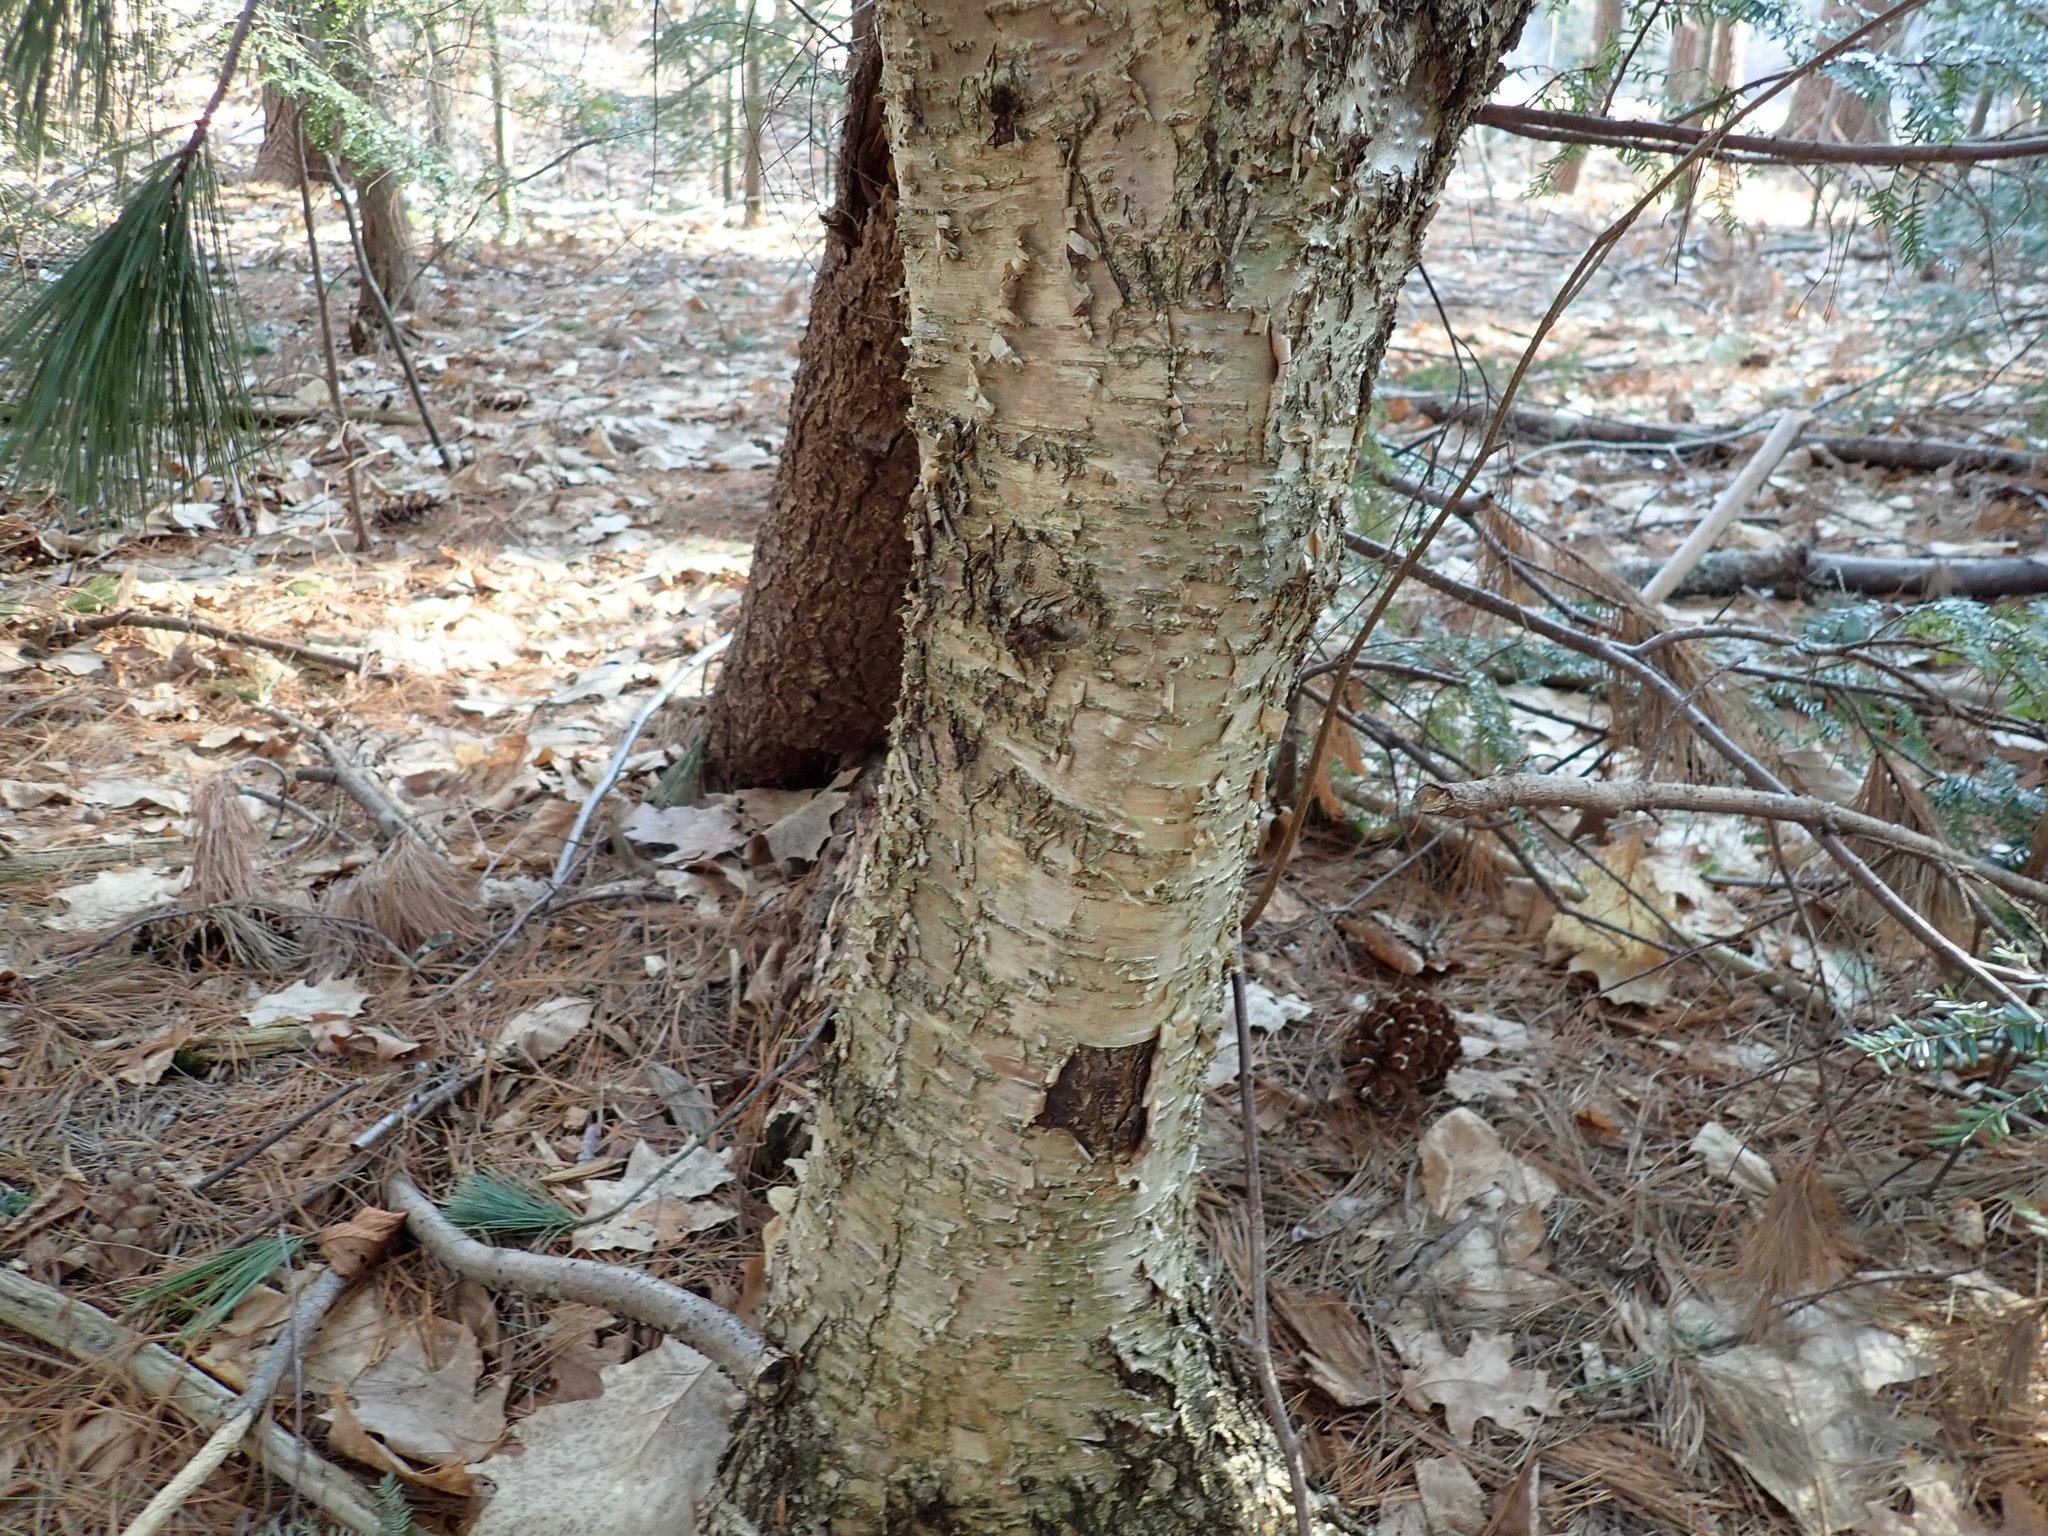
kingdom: Plantae
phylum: Tracheophyta
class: Magnoliopsida
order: Fagales
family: Betulaceae
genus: Betula
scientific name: Betula alleghaniensis
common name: Yellow birch
